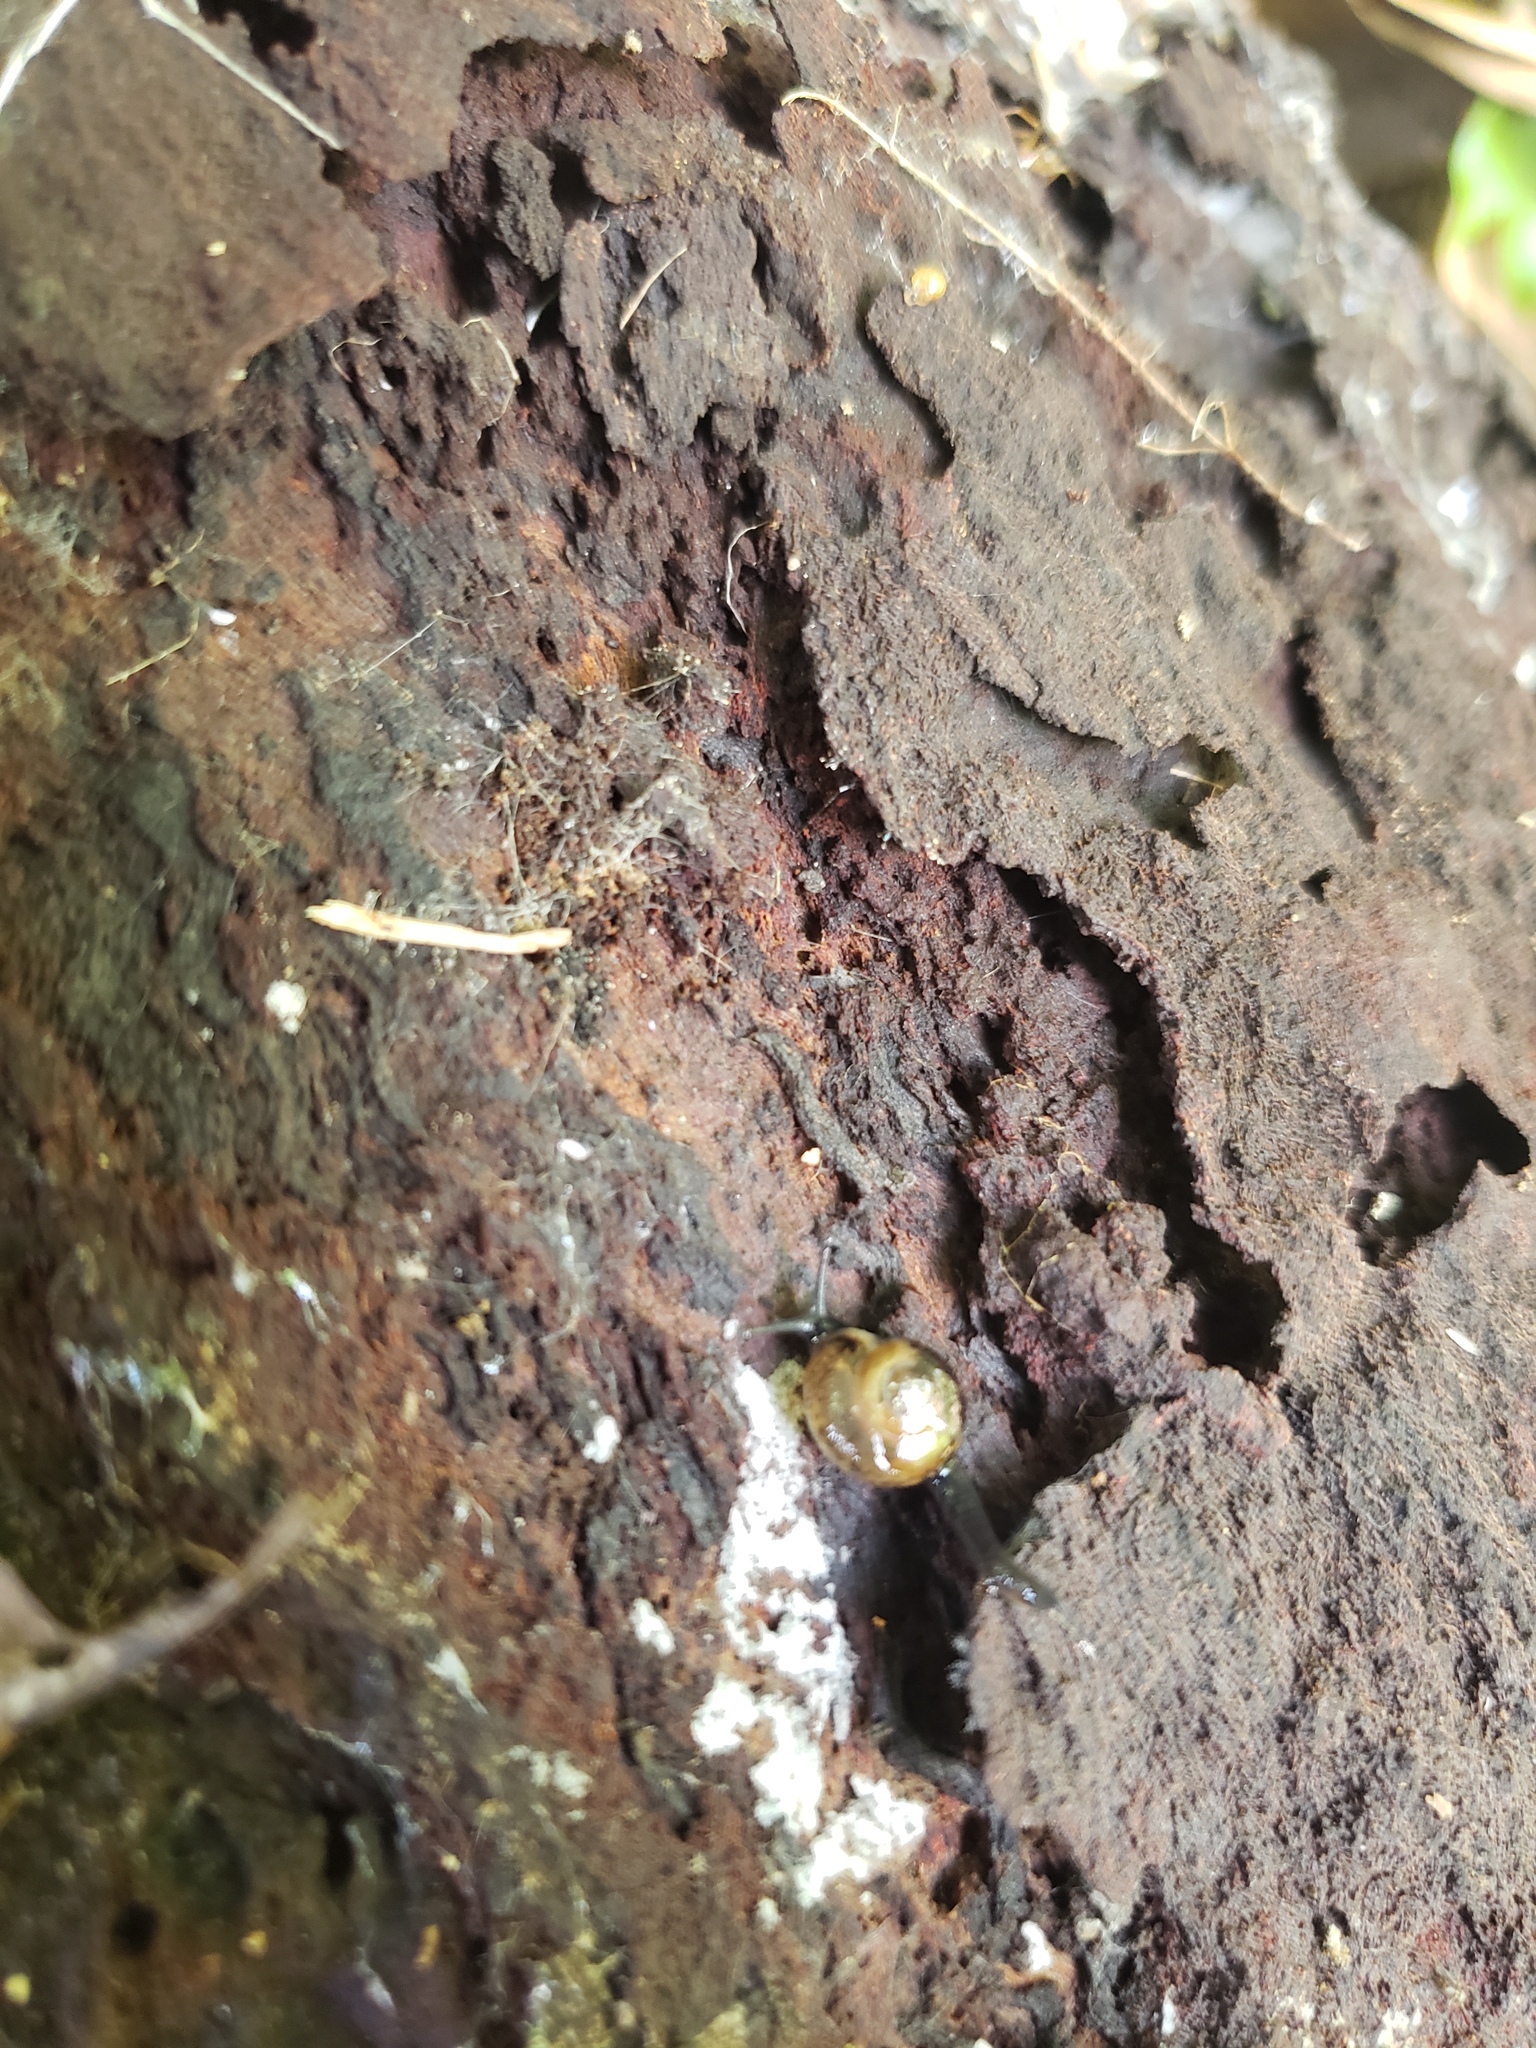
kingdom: Animalia
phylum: Mollusca
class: Gastropoda
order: Stylommatophora
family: Helicarionidae
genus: Ovachlamys
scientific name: Ovachlamys fulgens
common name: Jumping snail
